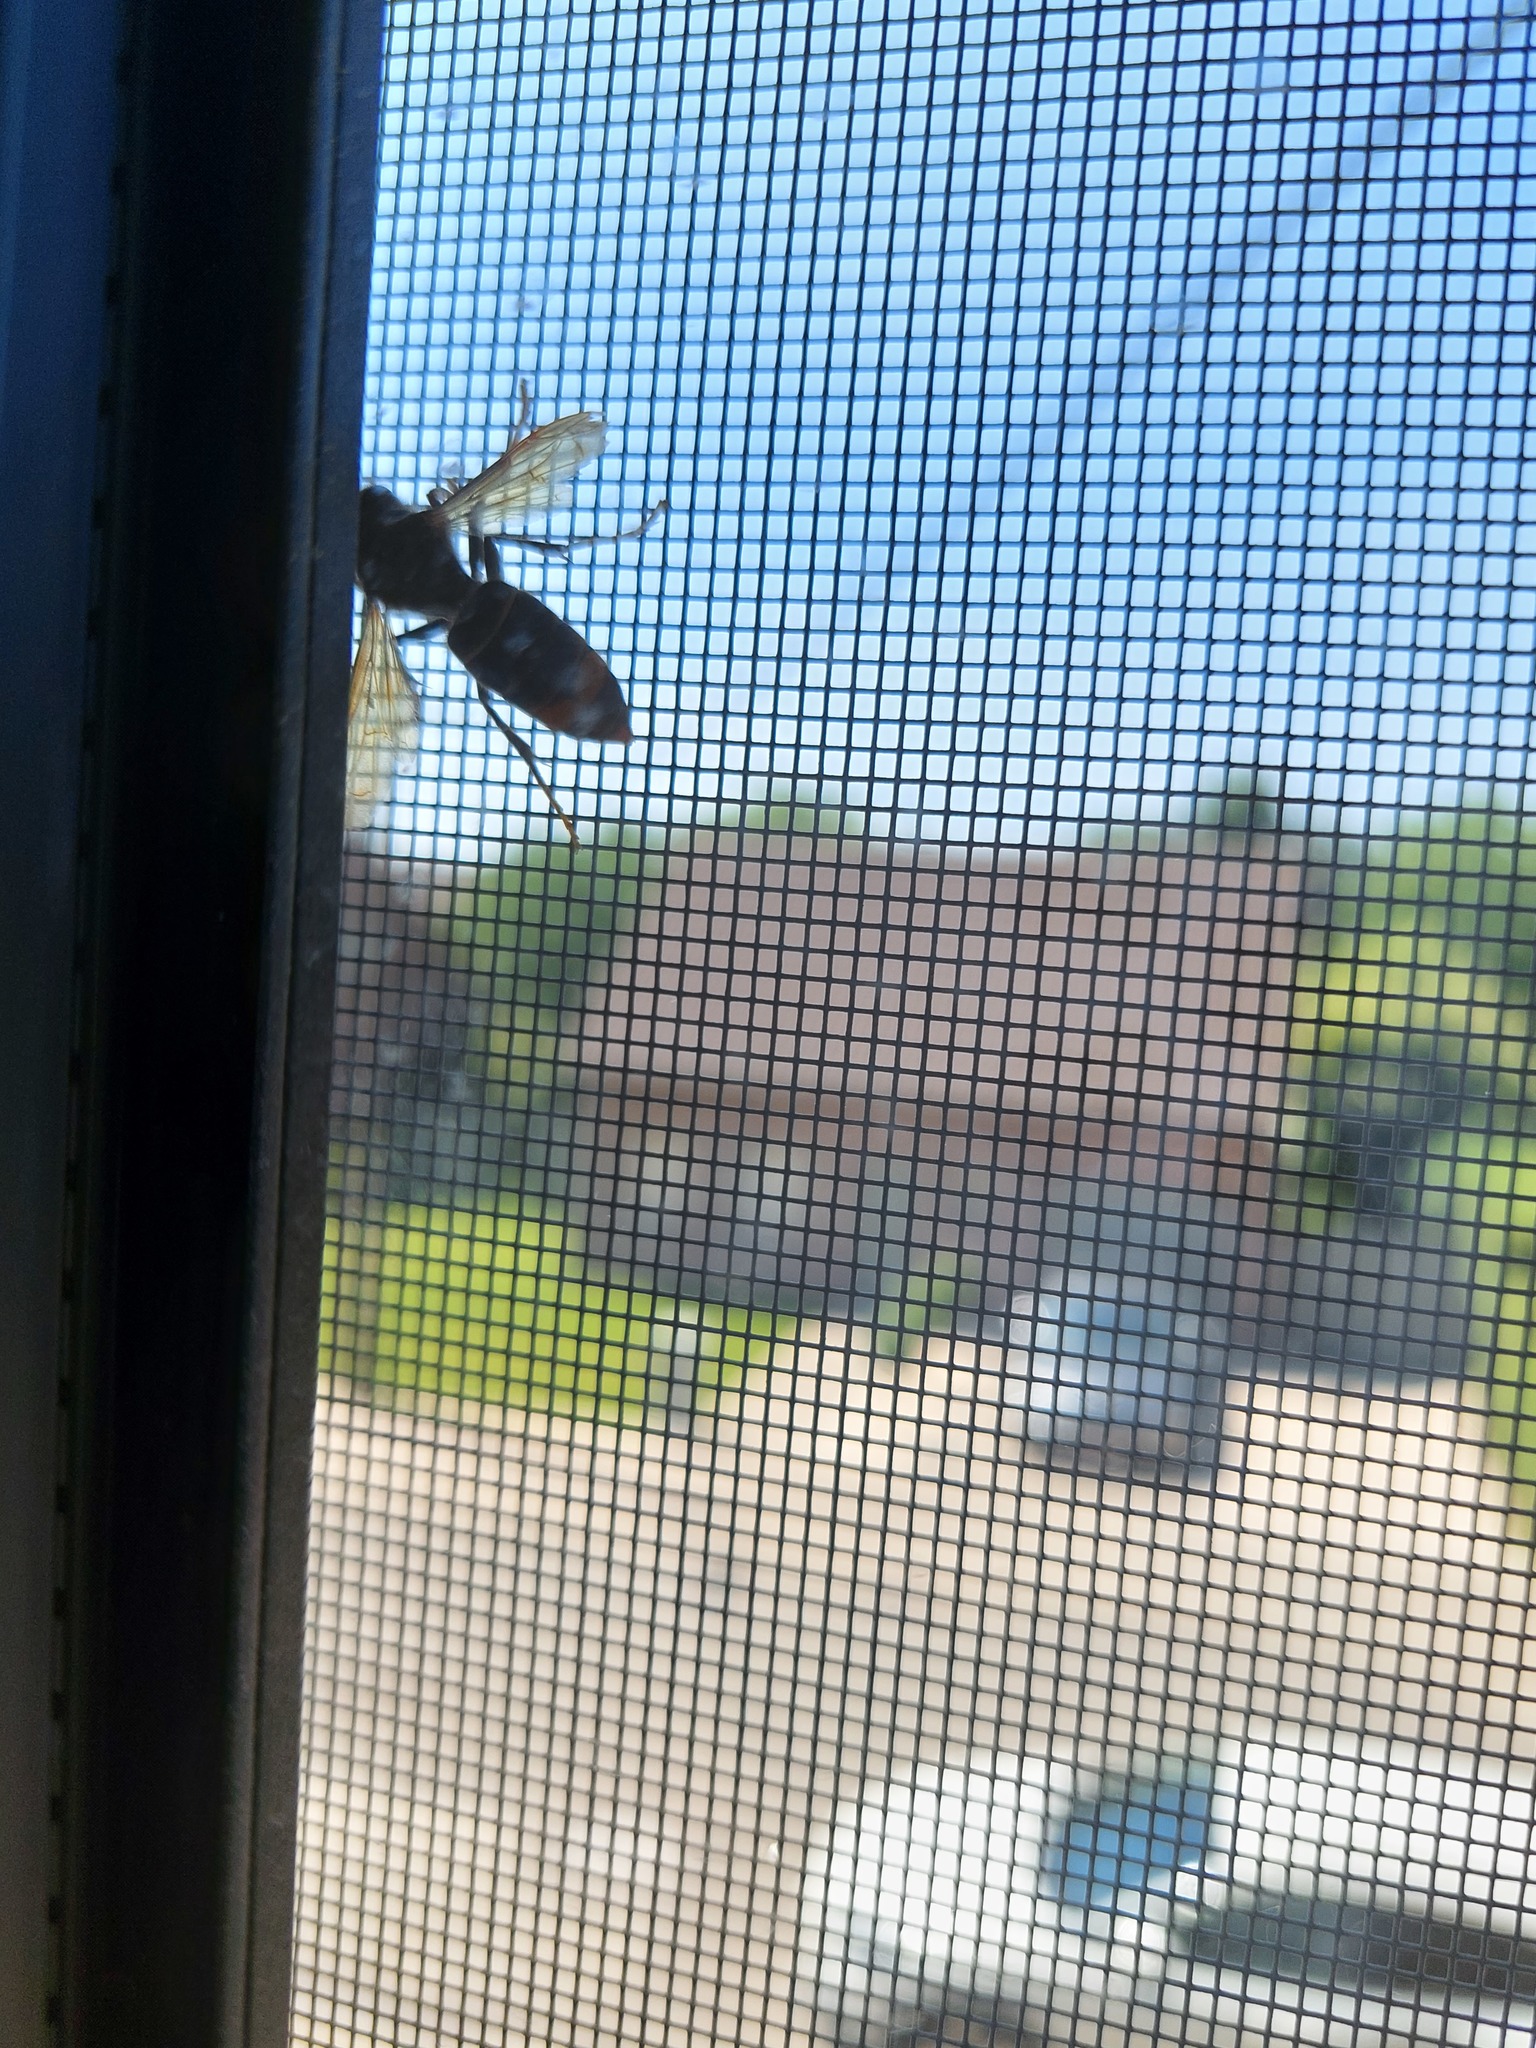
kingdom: Animalia
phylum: Arthropoda
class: Insecta
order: Hymenoptera
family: Vespidae
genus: Vespa
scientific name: Vespa velutina
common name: Asian hornet
